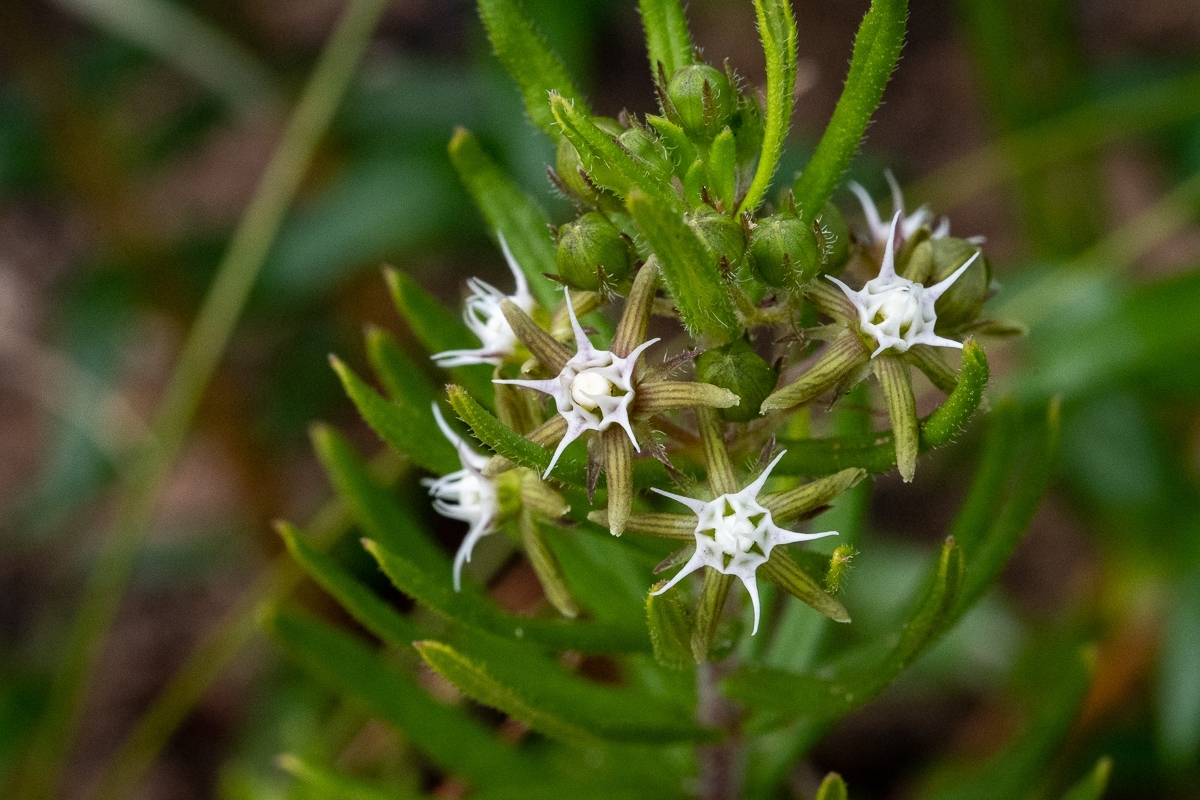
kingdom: Plantae
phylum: Tracheophyta
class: Magnoliopsida
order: Gentianales
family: Apocynaceae
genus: Aspidoglossum
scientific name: Aspidoglossum heterophyllum
